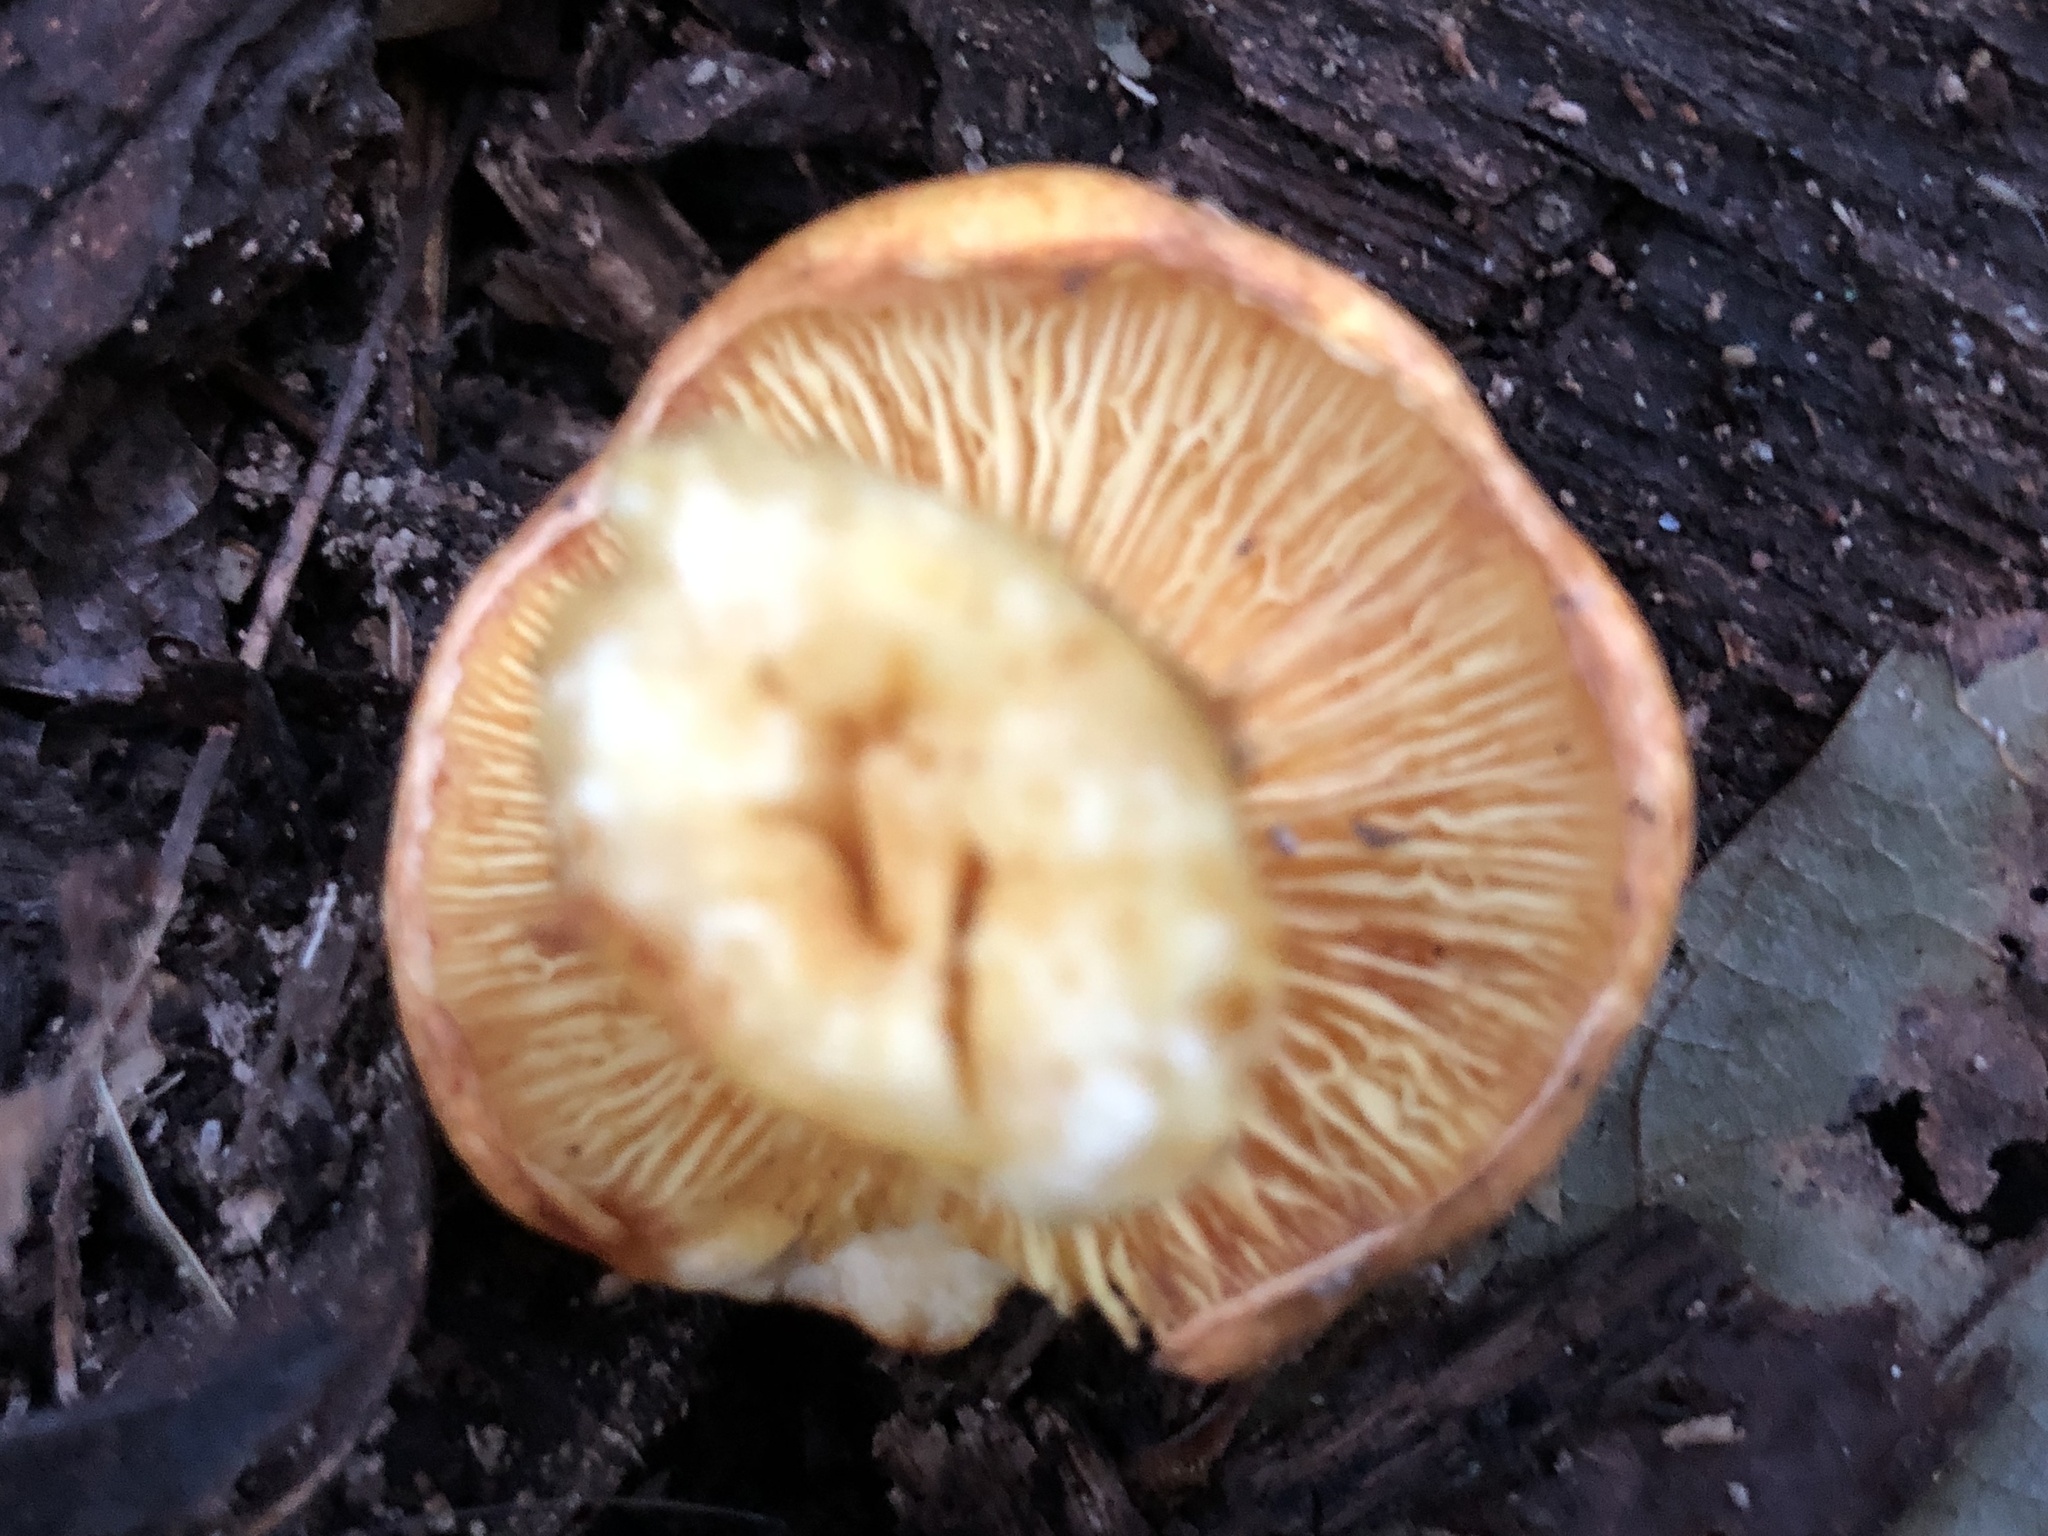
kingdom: Fungi
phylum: Basidiomycota
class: Agaricomycetes
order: Agaricales
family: Hymenogastraceae
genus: Gymnopilus
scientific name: Gymnopilus subspectabilis
